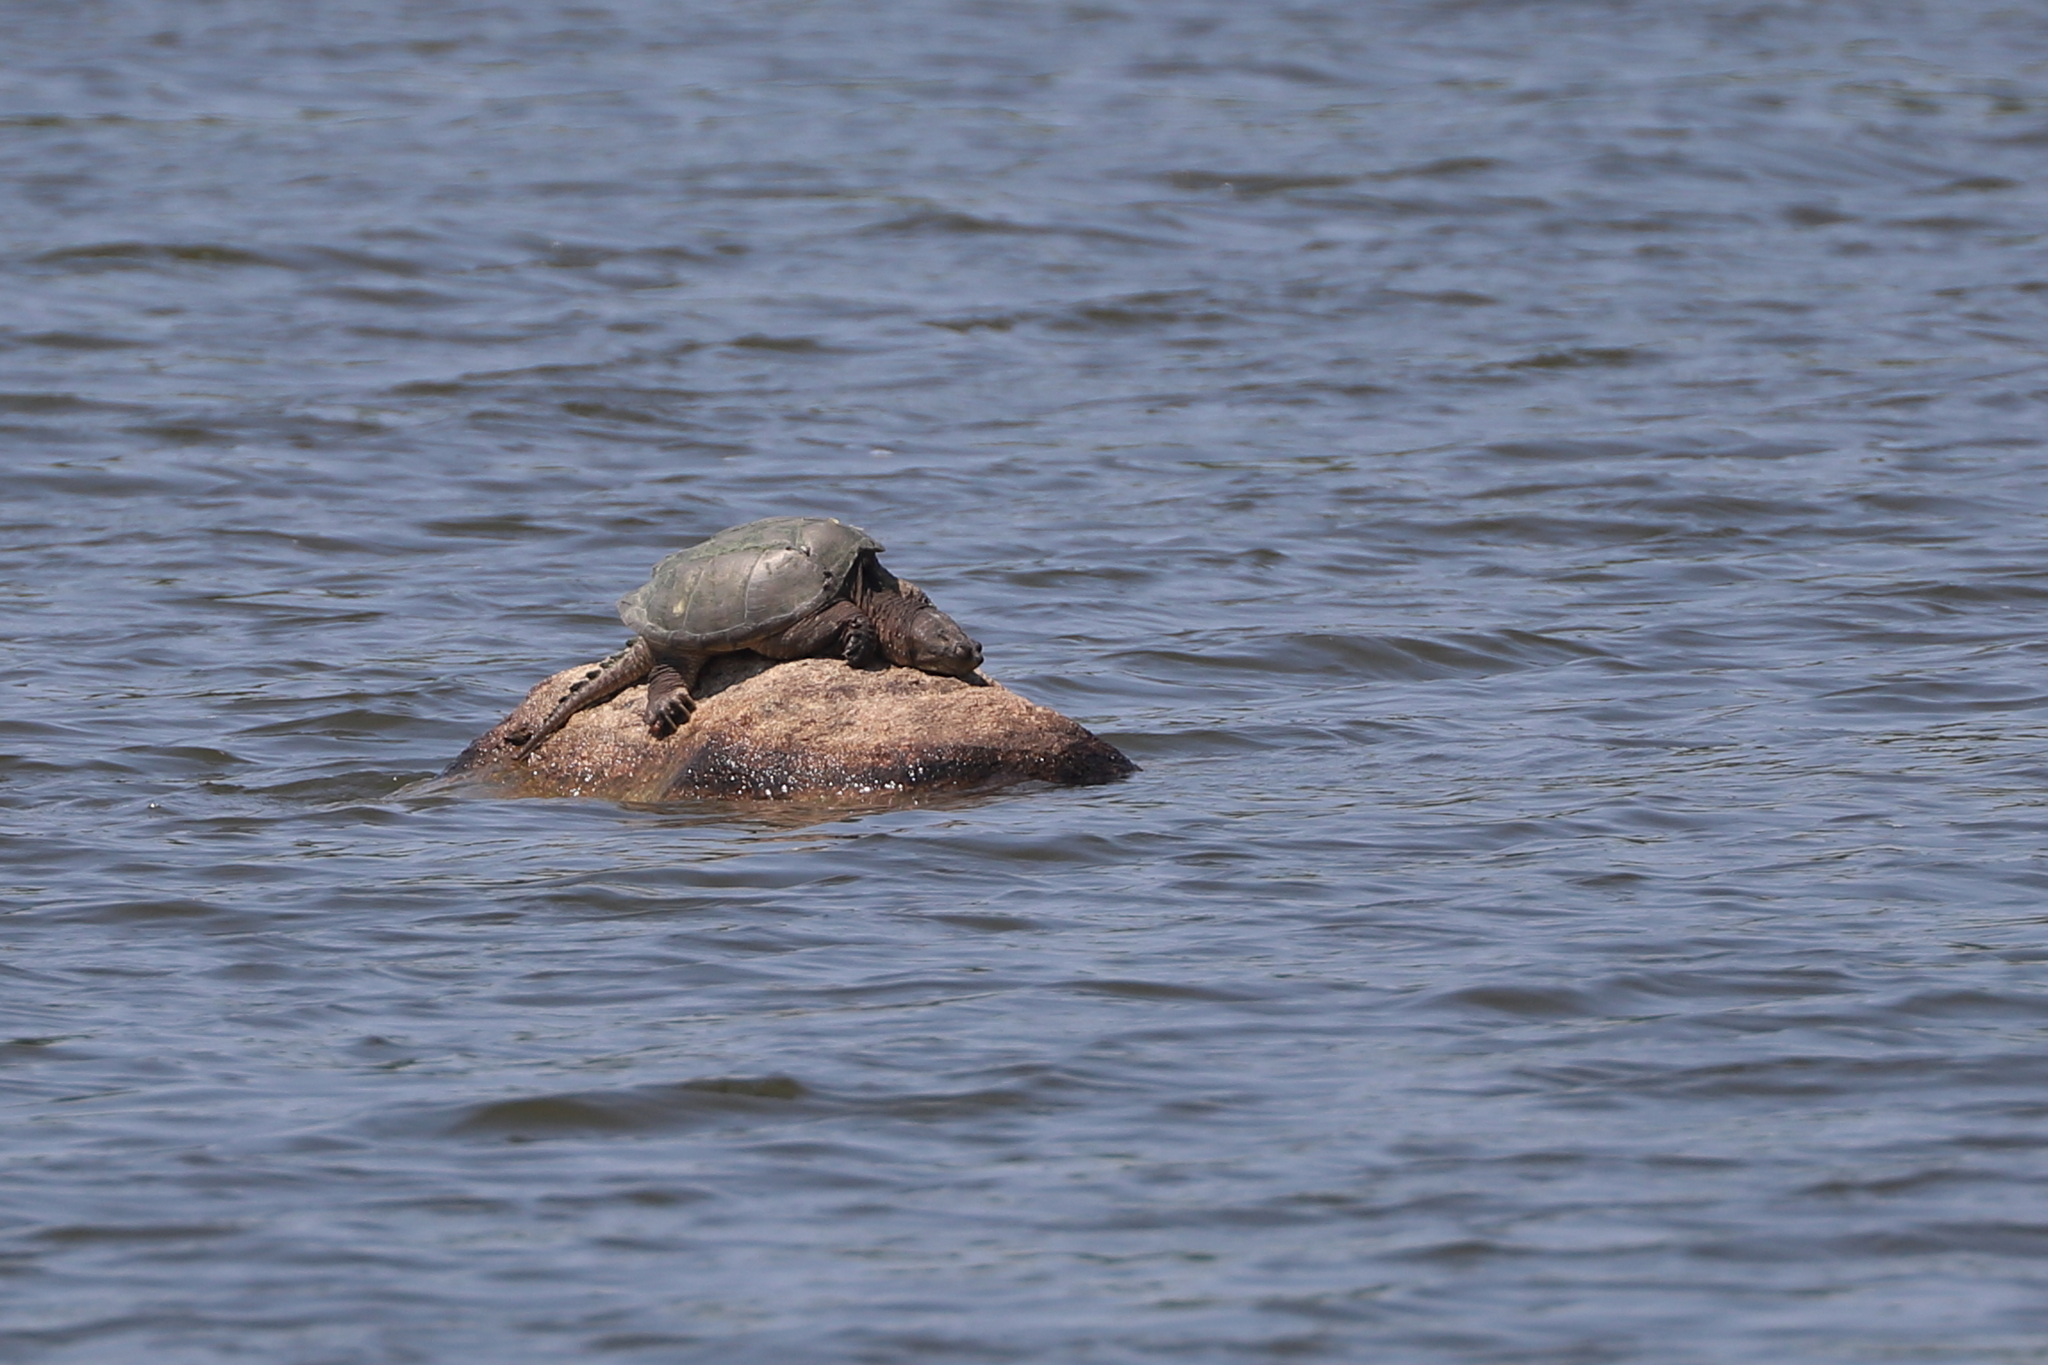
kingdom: Animalia
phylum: Chordata
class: Testudines
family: Chelydridae
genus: Chelydra
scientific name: Chelydra serpentina
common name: Common snapping turtle
